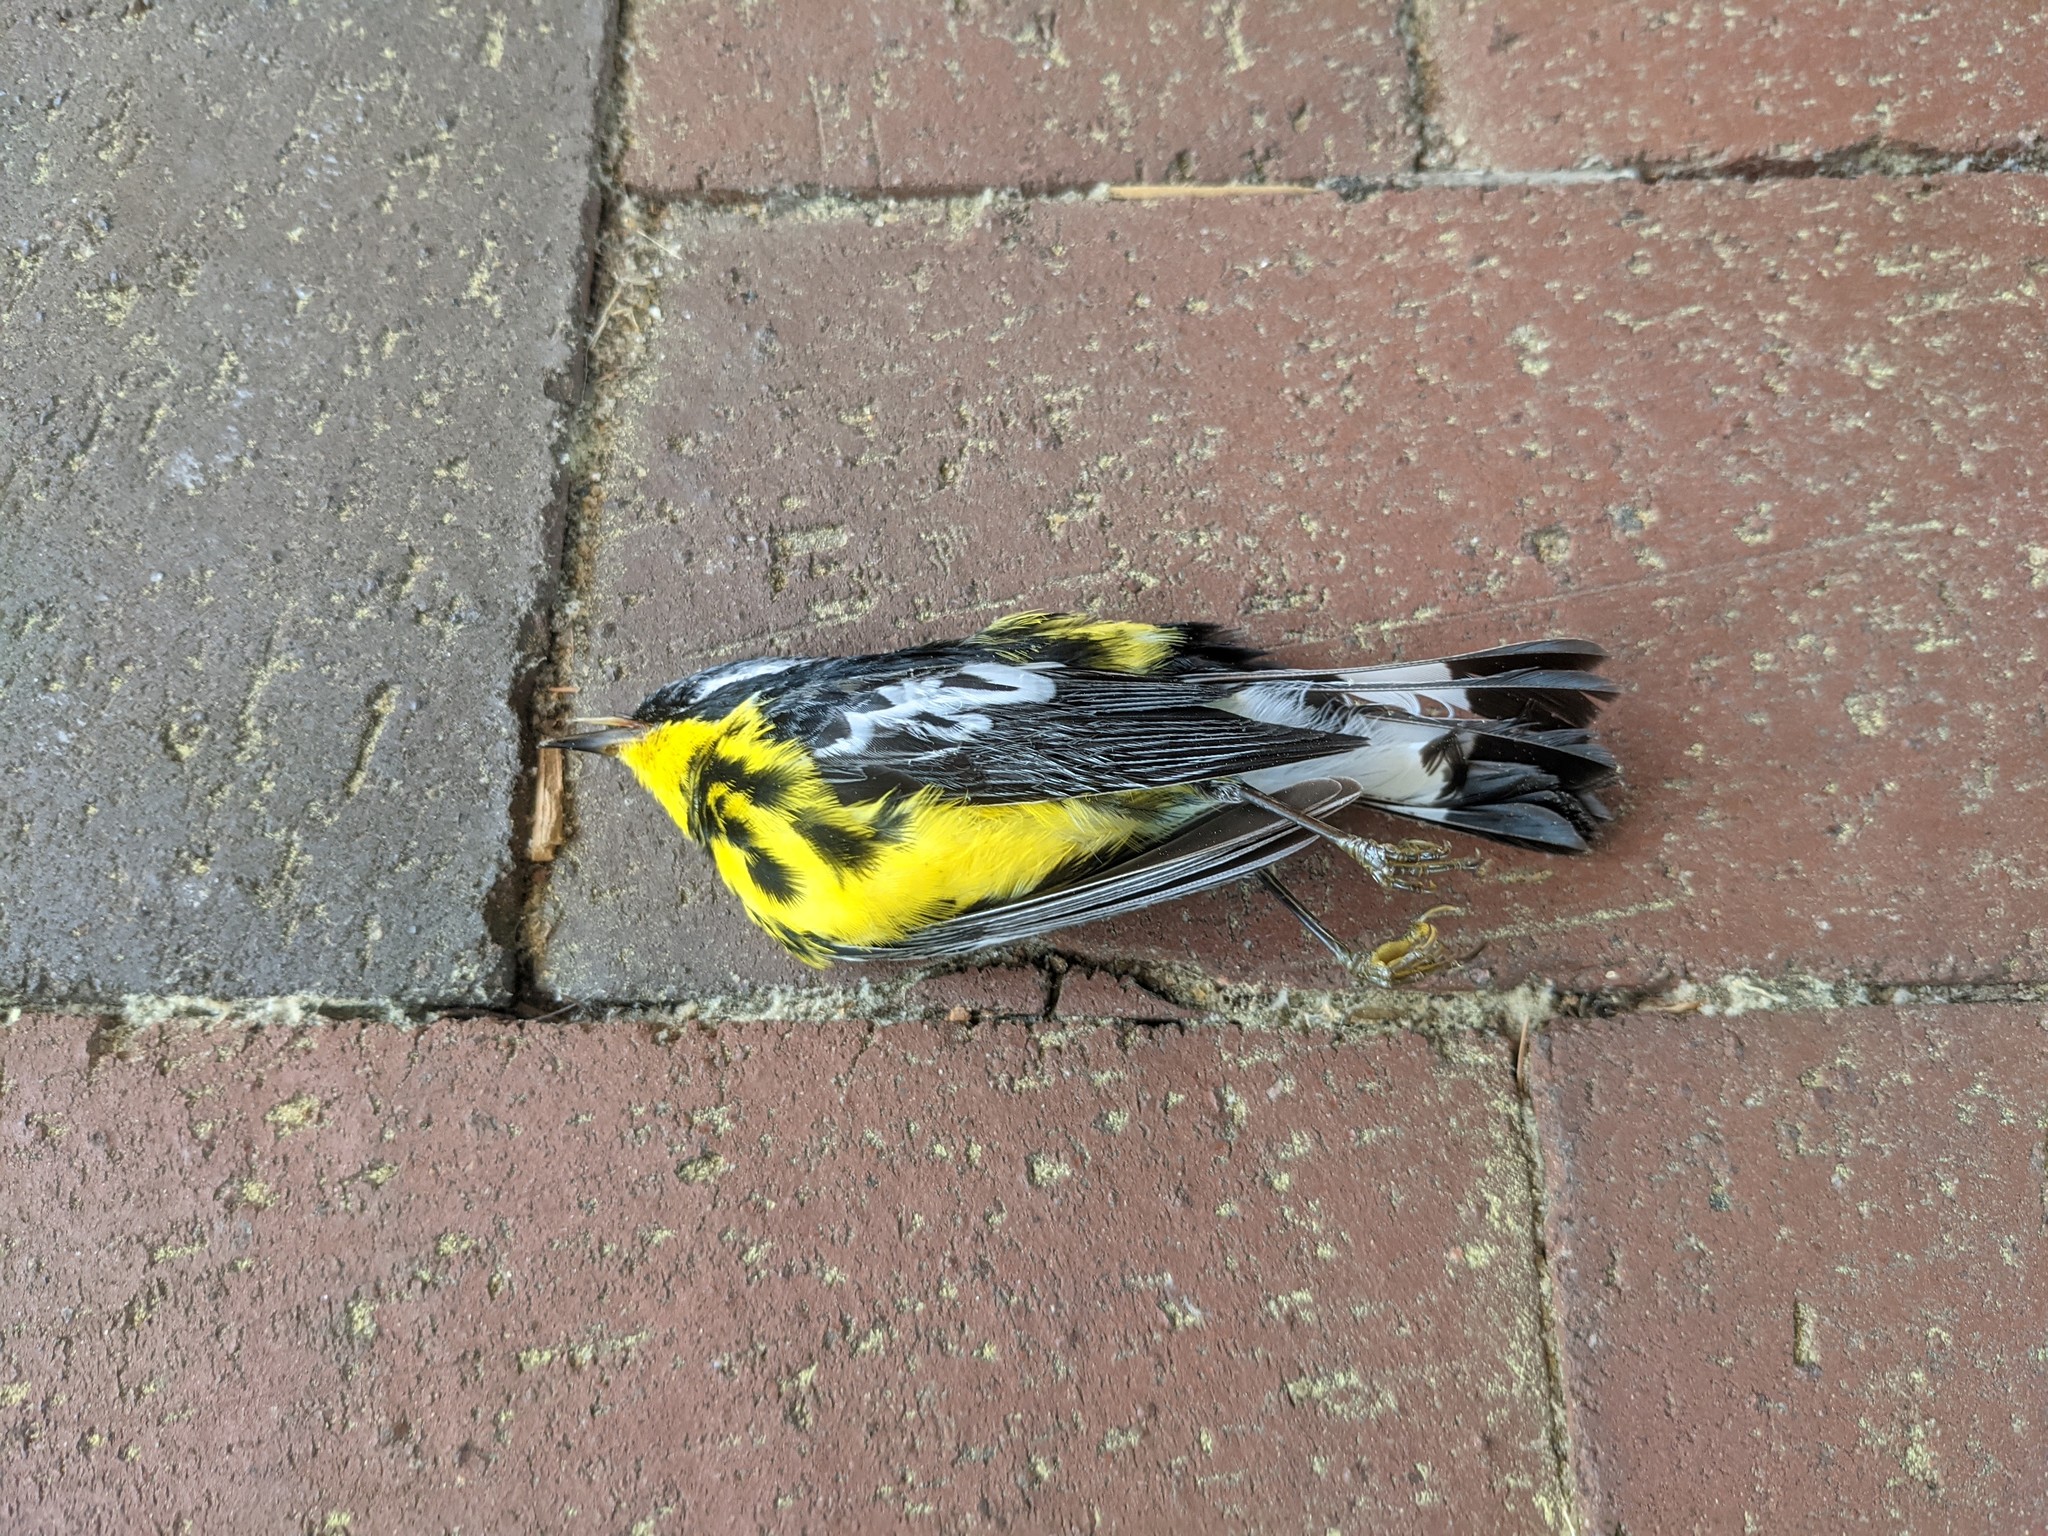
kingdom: Animalia
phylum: Chordata
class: Aves
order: Passeriformes
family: Parulidae
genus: Setophaga
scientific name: Setophaga magnolia
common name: Magnolia warbler
